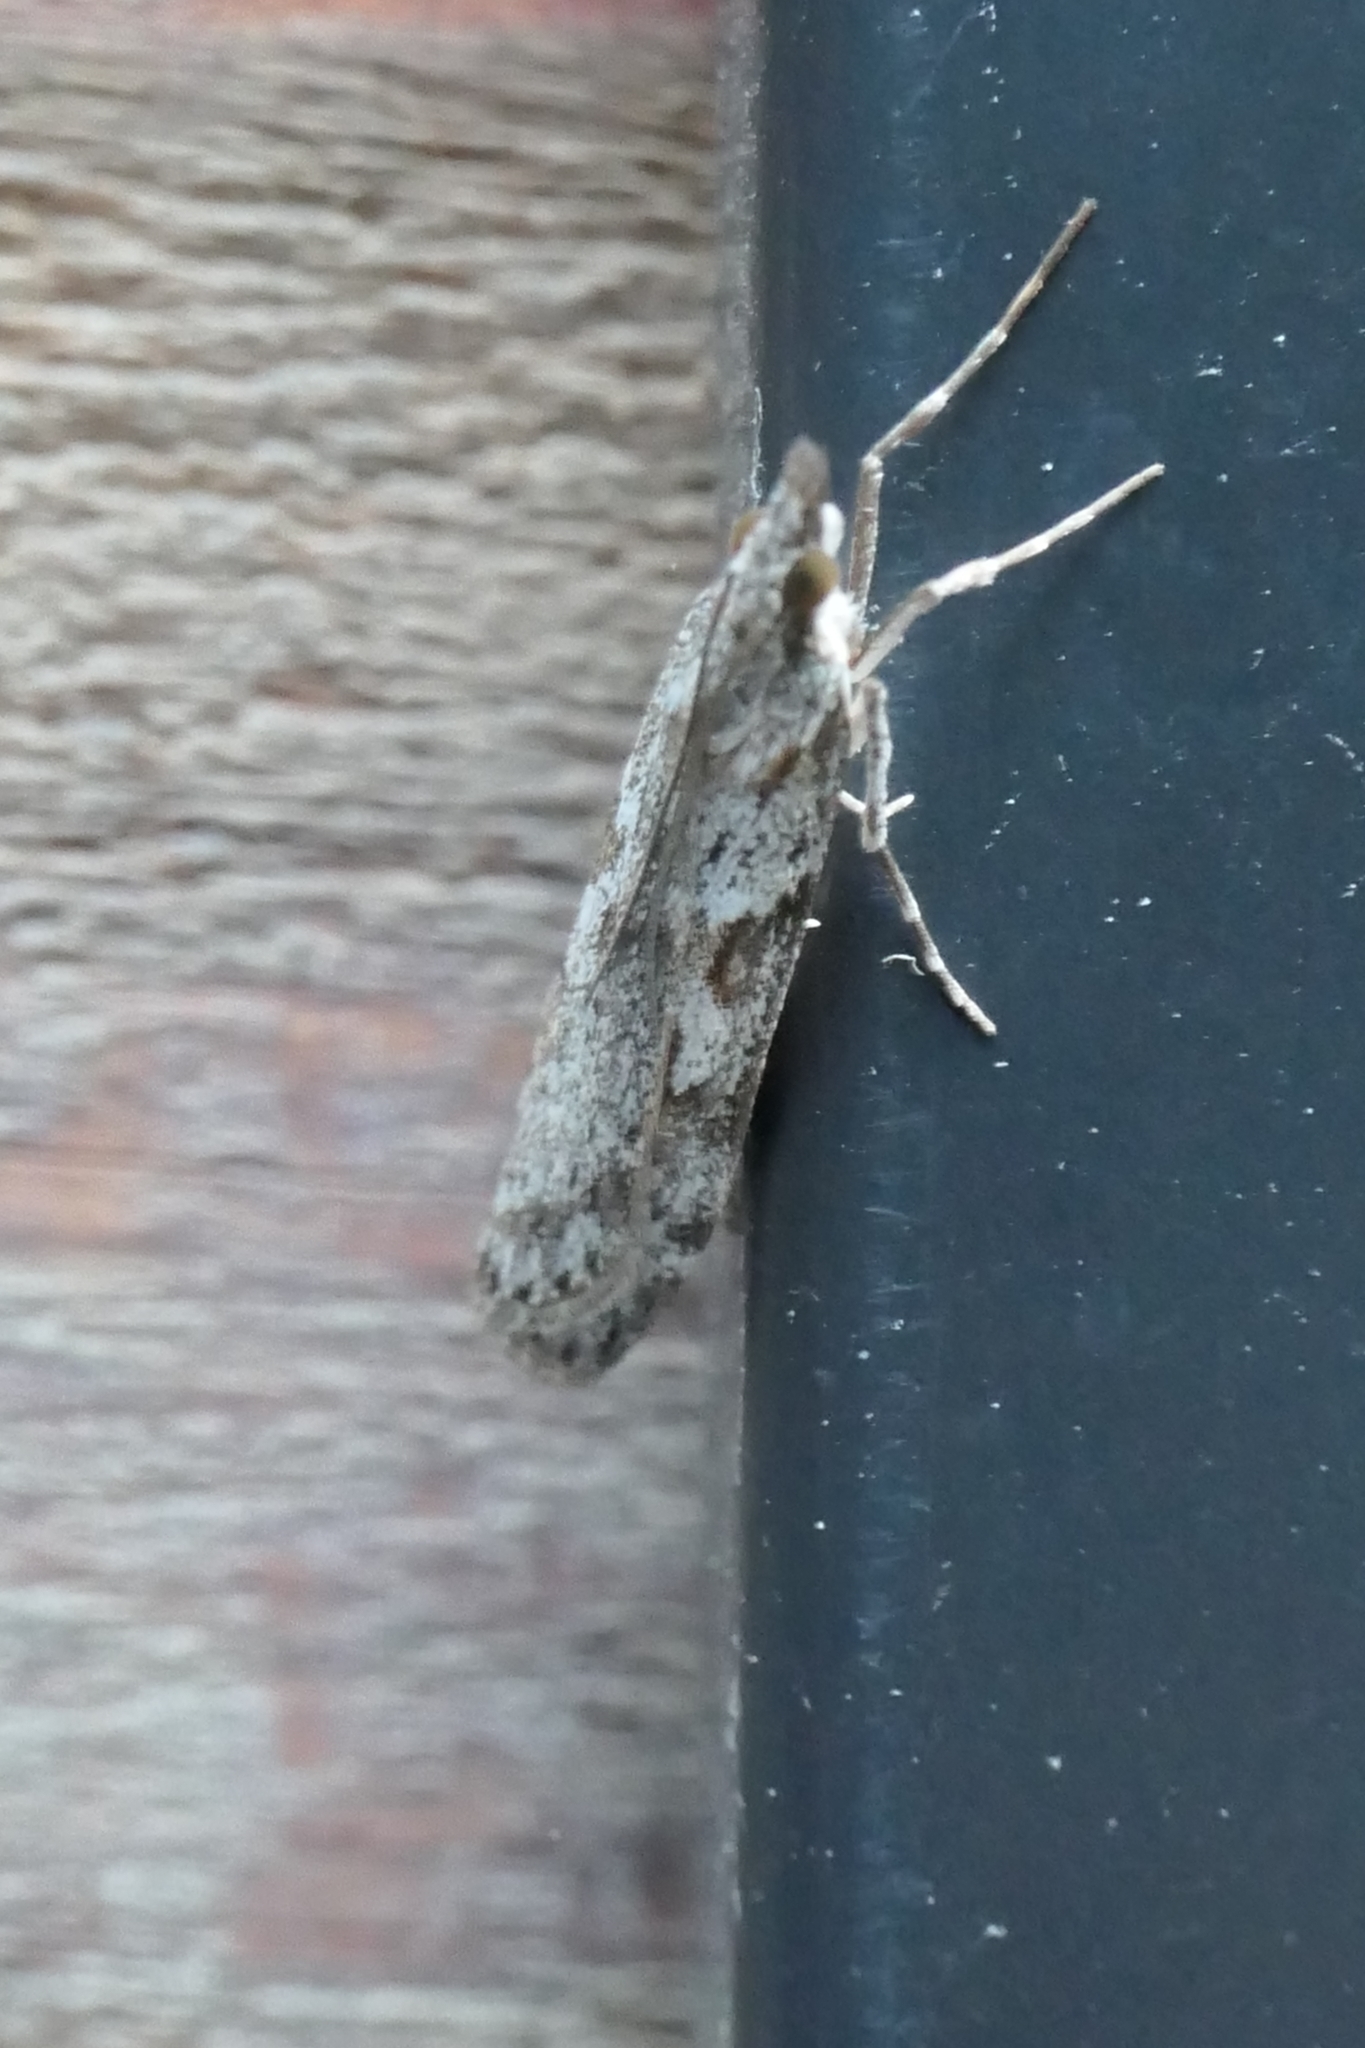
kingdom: Animalia
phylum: Arthropoda
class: Insecta
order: Lepidoptera
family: Crambidae
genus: Scoparia
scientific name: Scoparia halopis
